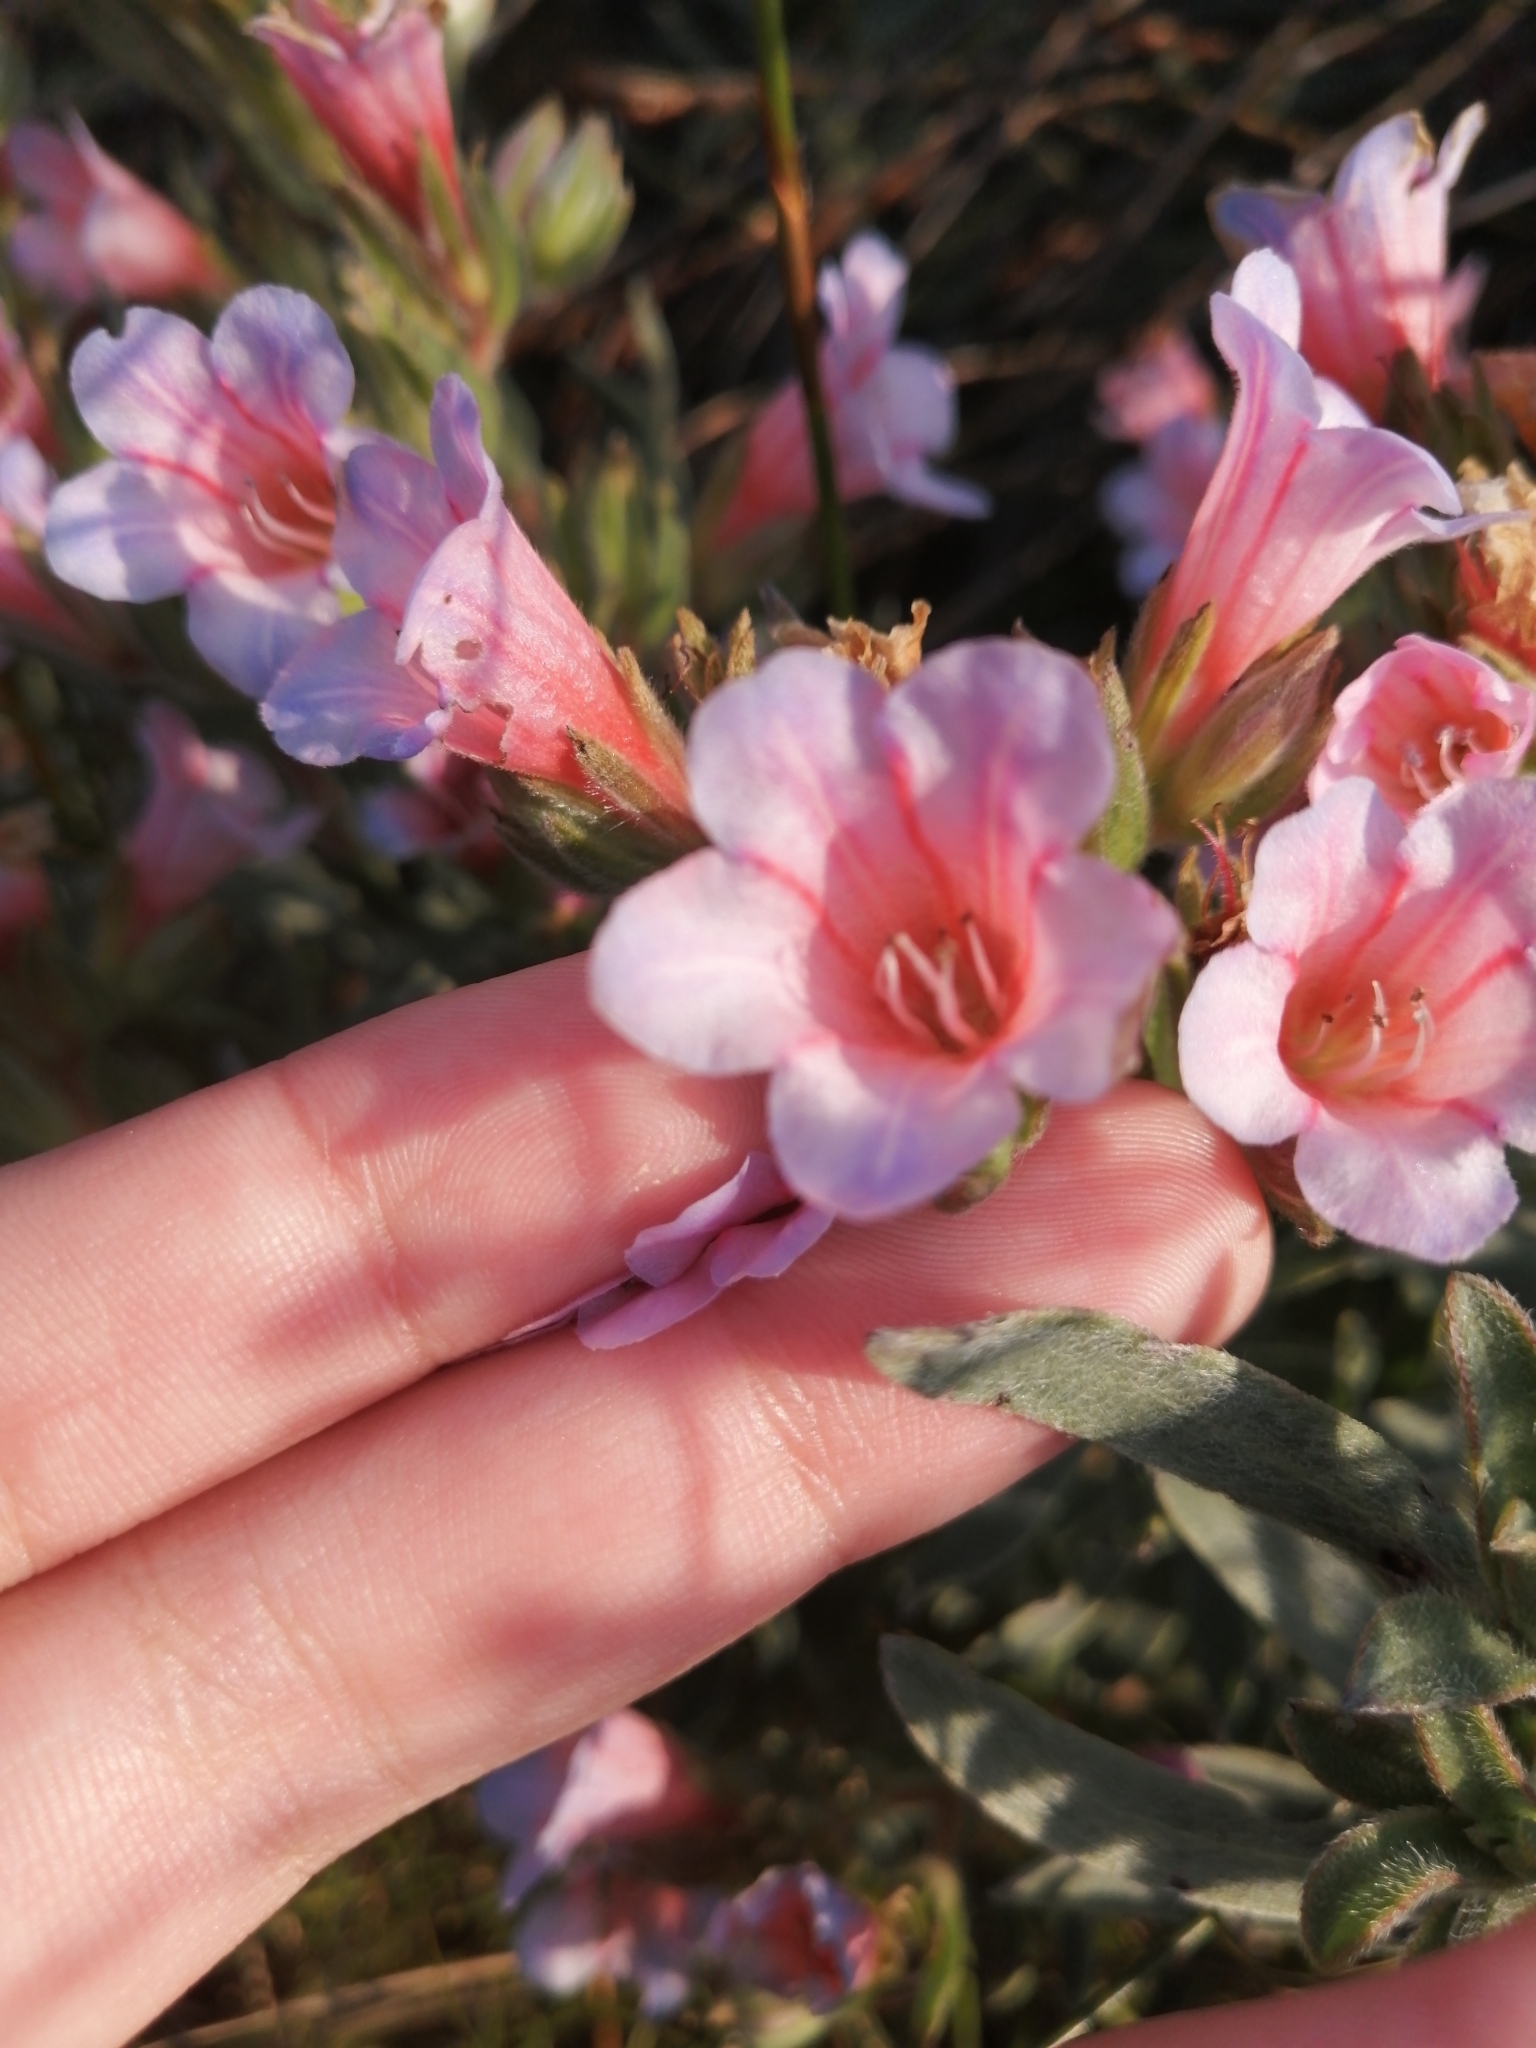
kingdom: Plantae
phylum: Tracheophyta
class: Magnoliopsida
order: Boraginales
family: Boraginaceae
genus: Lobostemon
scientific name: Lobostemon fruticosus
